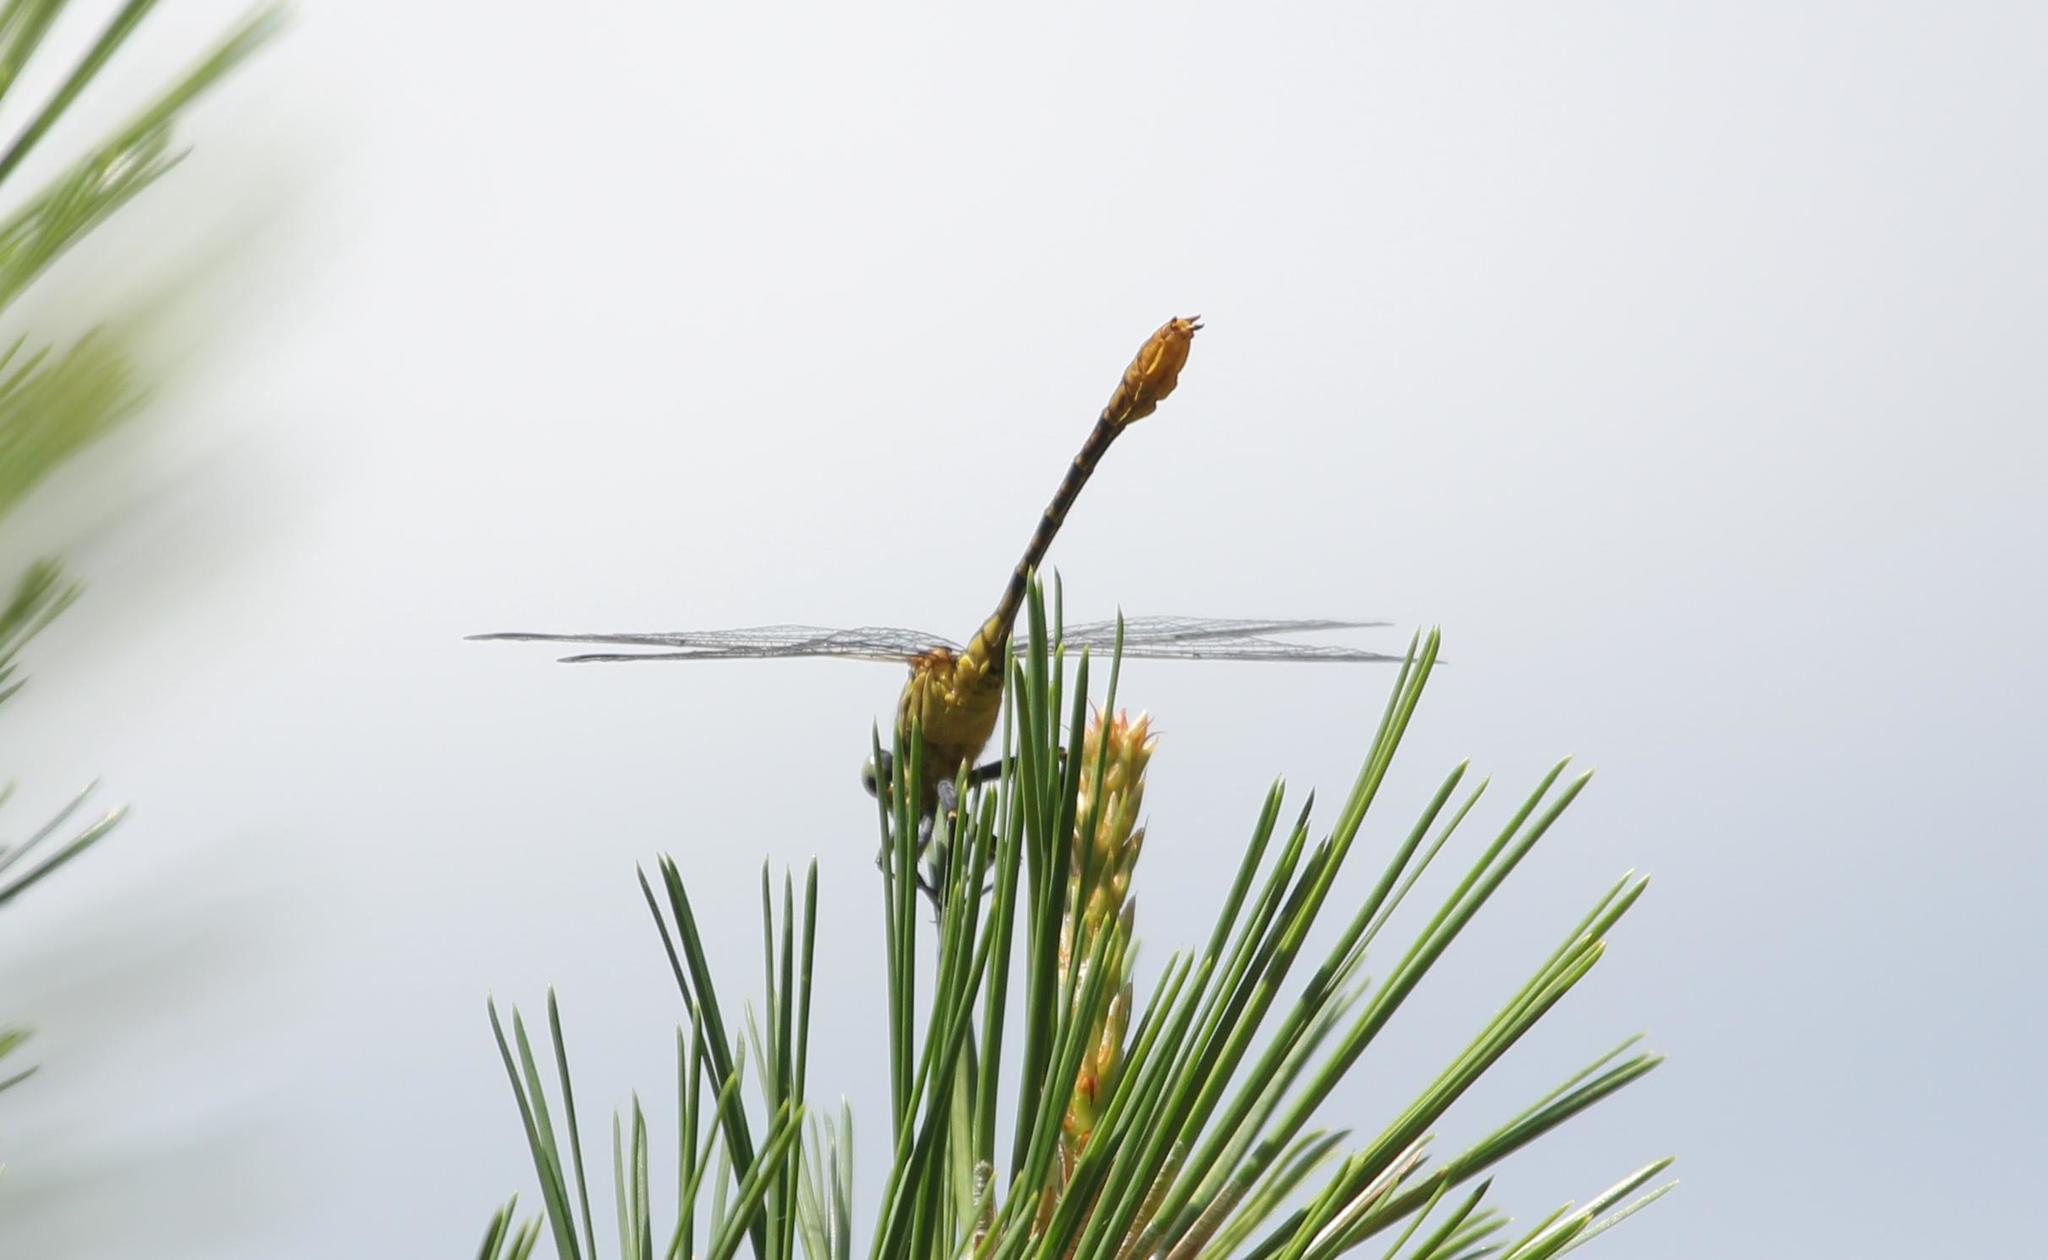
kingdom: Animalia
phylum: Arthropoda
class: Insecta
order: Odonata
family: Gomphidae
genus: Dromogomphus
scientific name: Dromogomphus armatus
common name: Southeastern spinyleg
